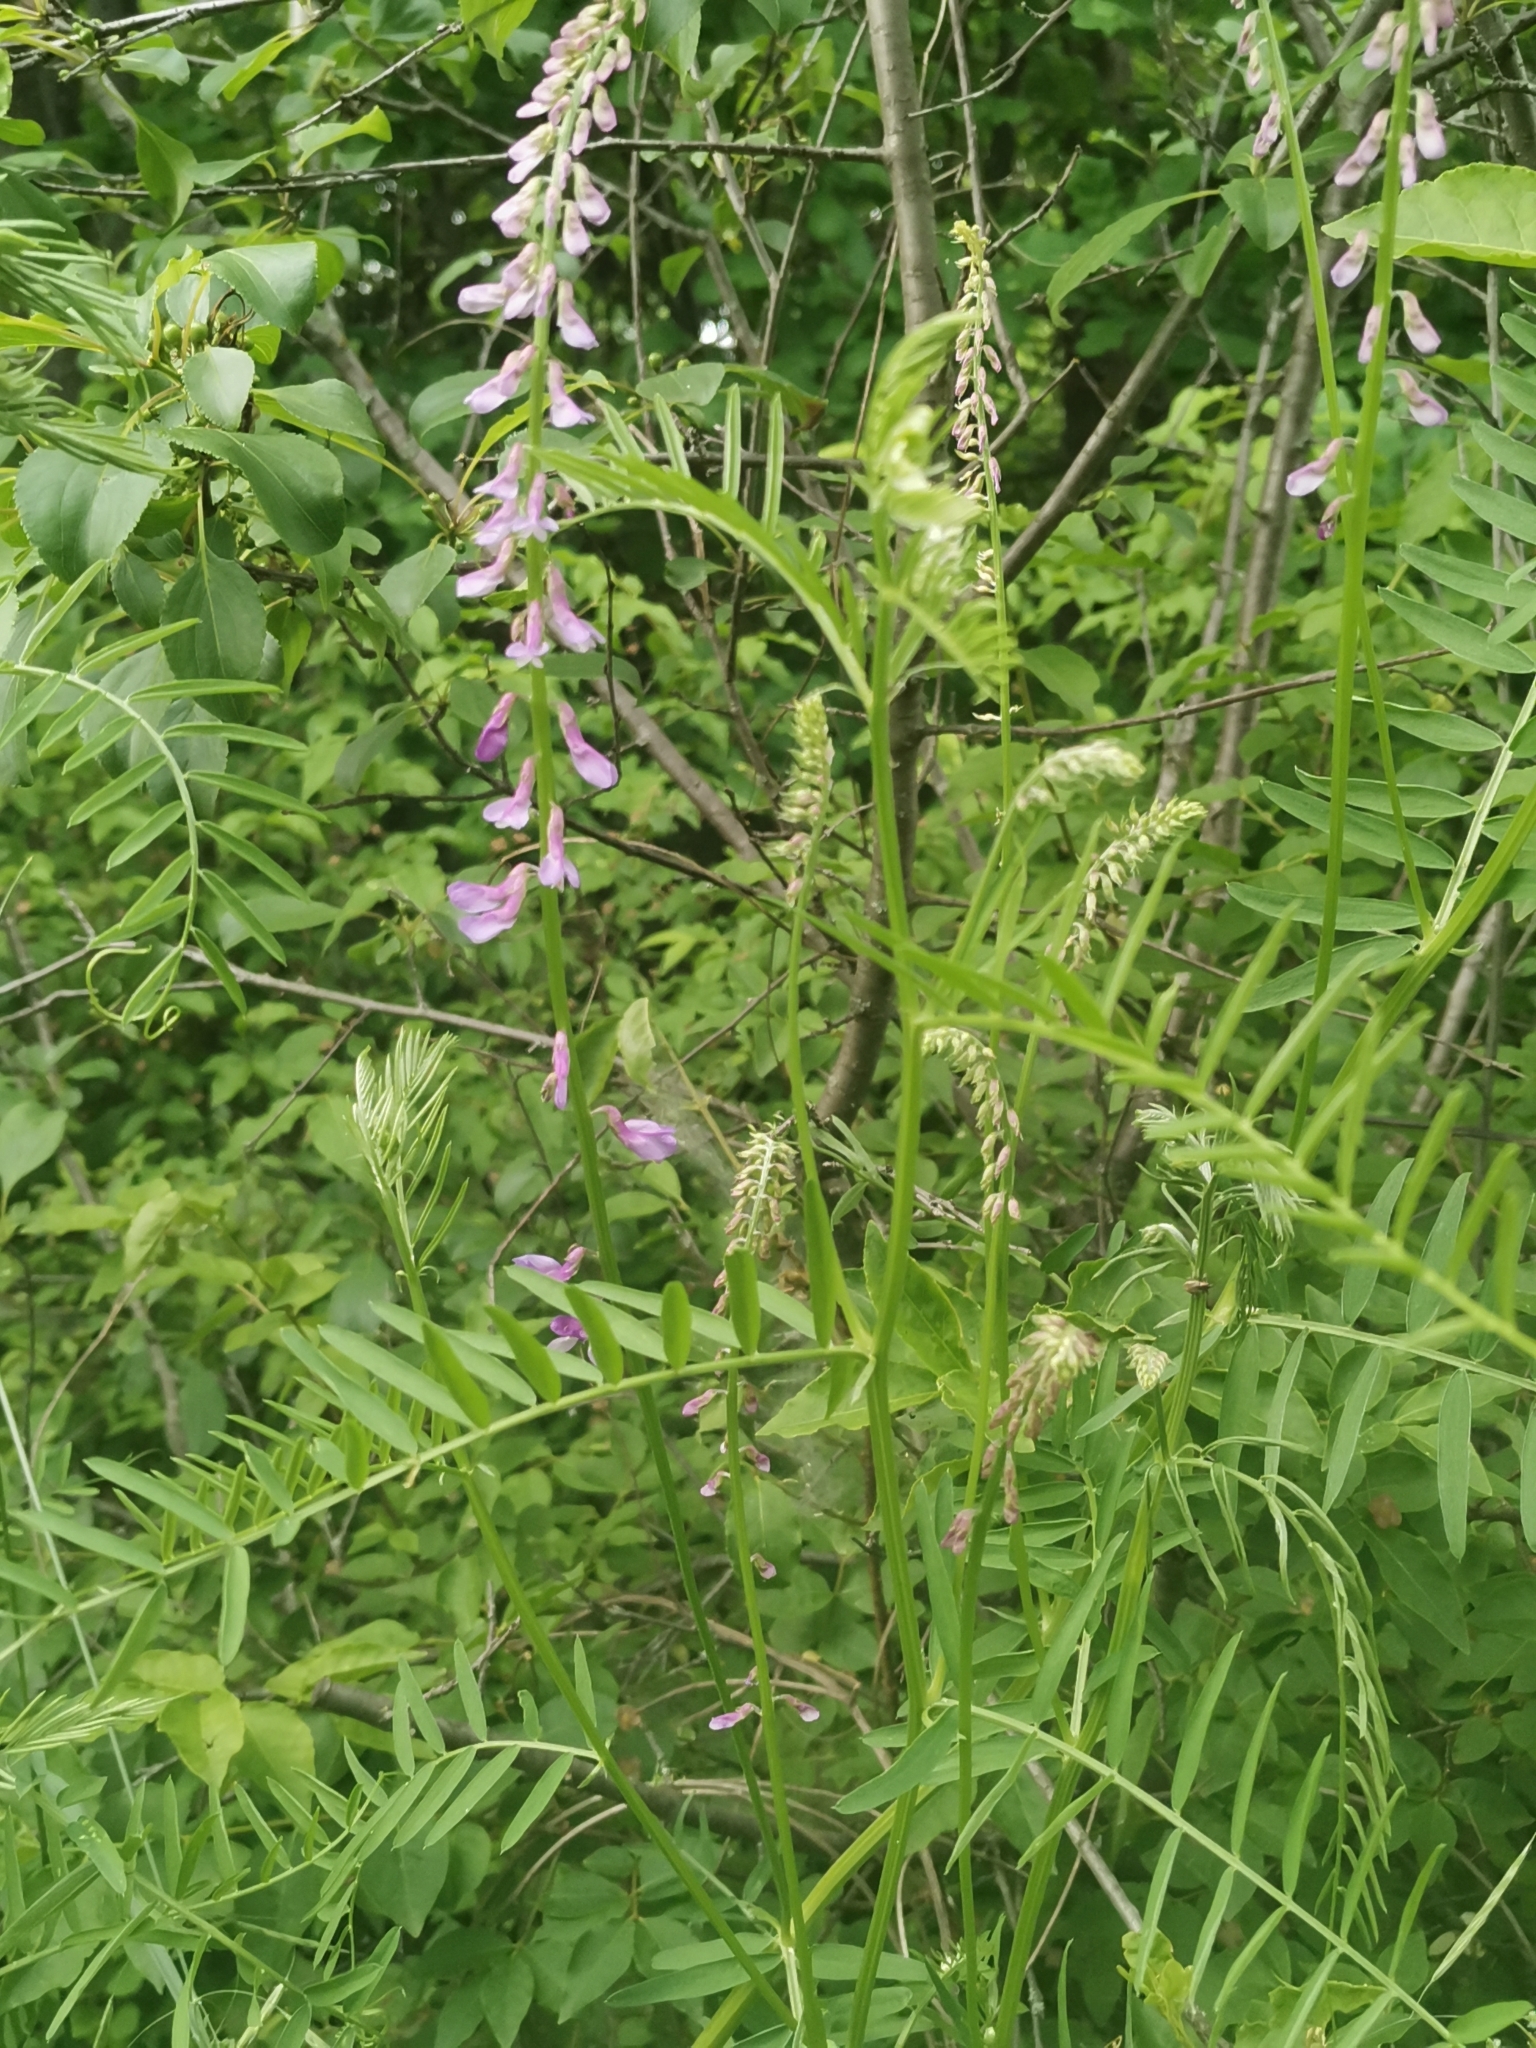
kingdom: Plantae
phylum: Tracheophyta
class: Magnoliopsida
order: Fabales
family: Fabaceae
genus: Vicia
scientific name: Vicia tenuifolia
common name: Fine-leaved vetch
